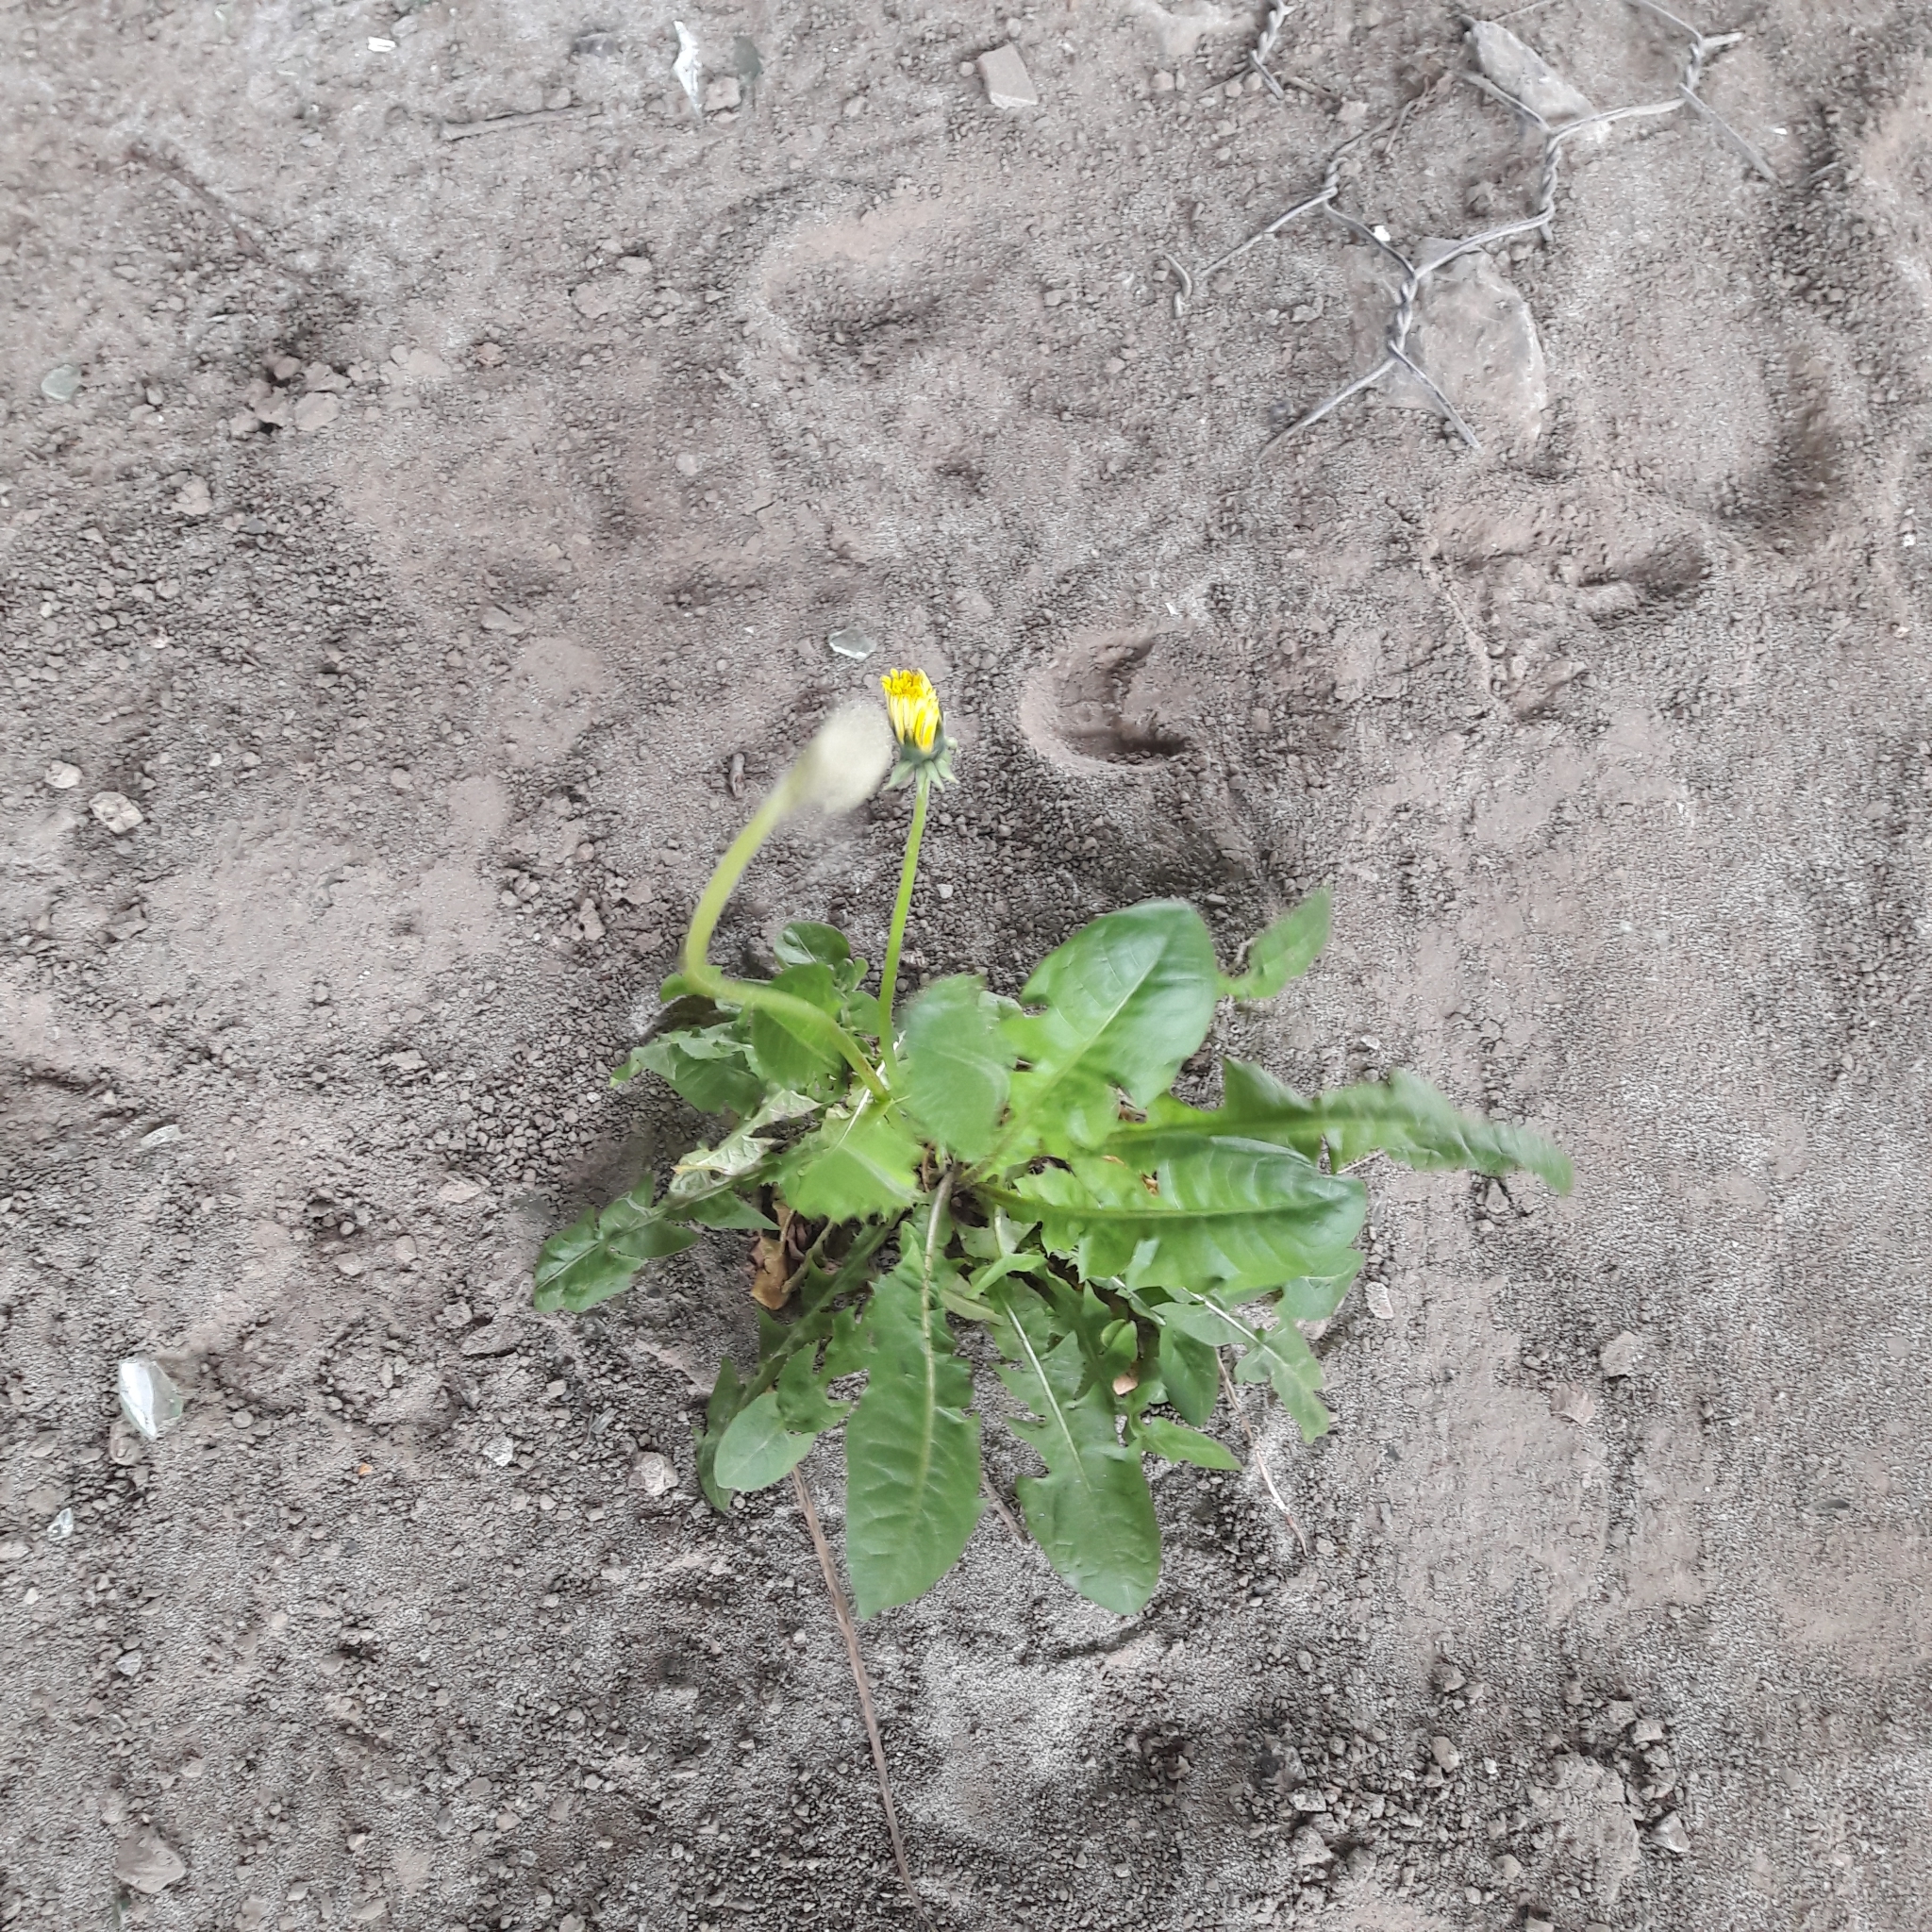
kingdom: Plantae
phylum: Tracheophyta
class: Magnoliopsida
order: Asterales
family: Asteraceae
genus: Taraxacum
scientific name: Taraxacum officinale
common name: Common dandelion
